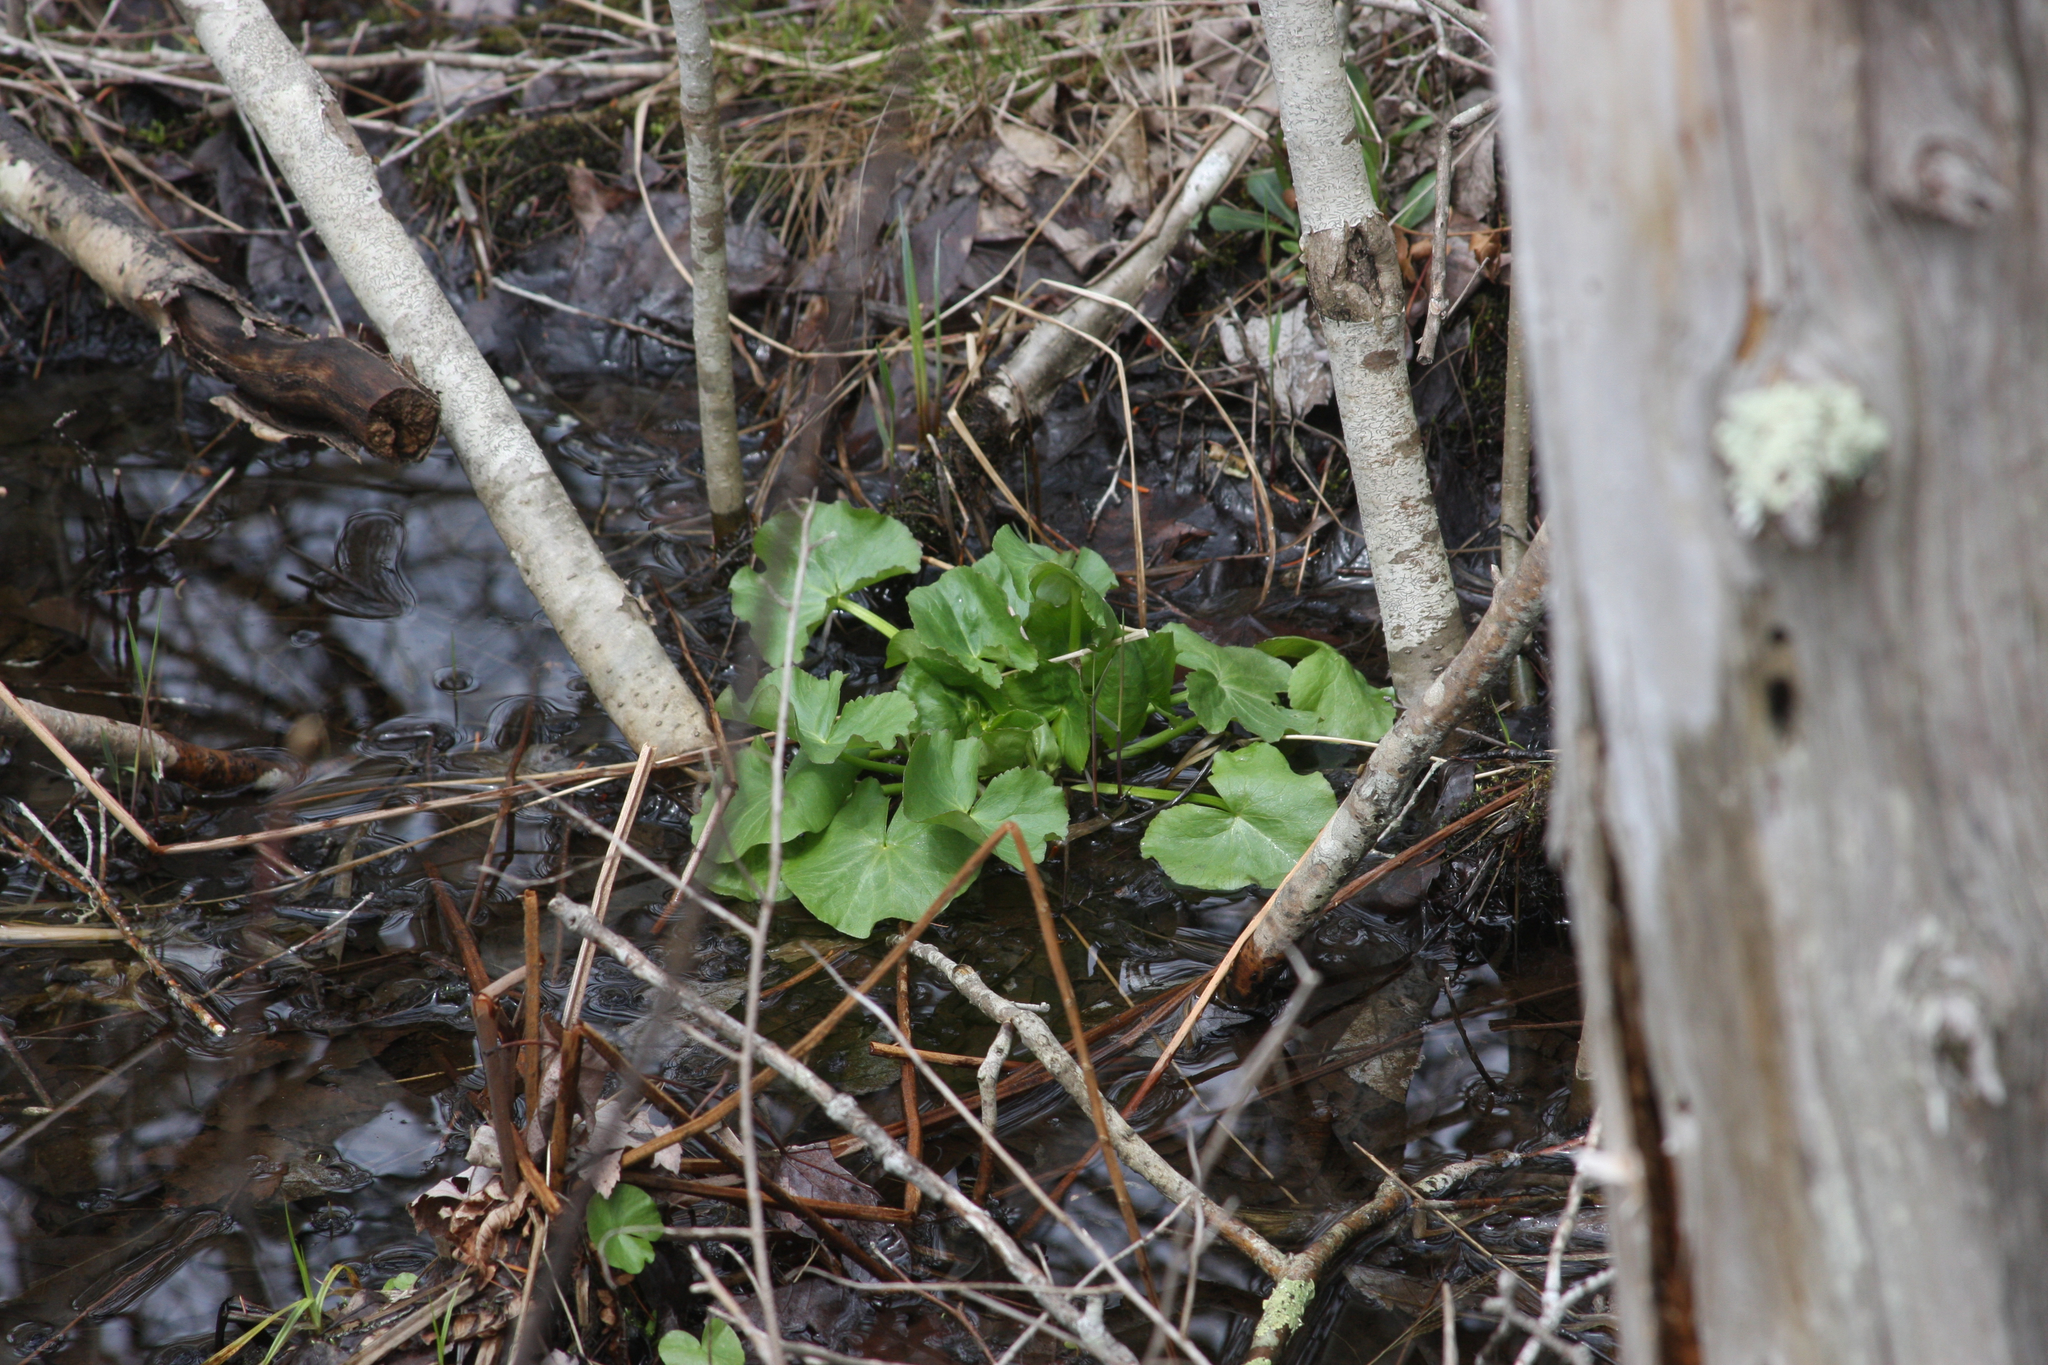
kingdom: Plantae
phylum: Tracheophyta
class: Magnoliopsida
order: Ranunculales
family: Ranunculaceae
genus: Caltha
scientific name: Caltha palustris
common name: Marsh marigold
